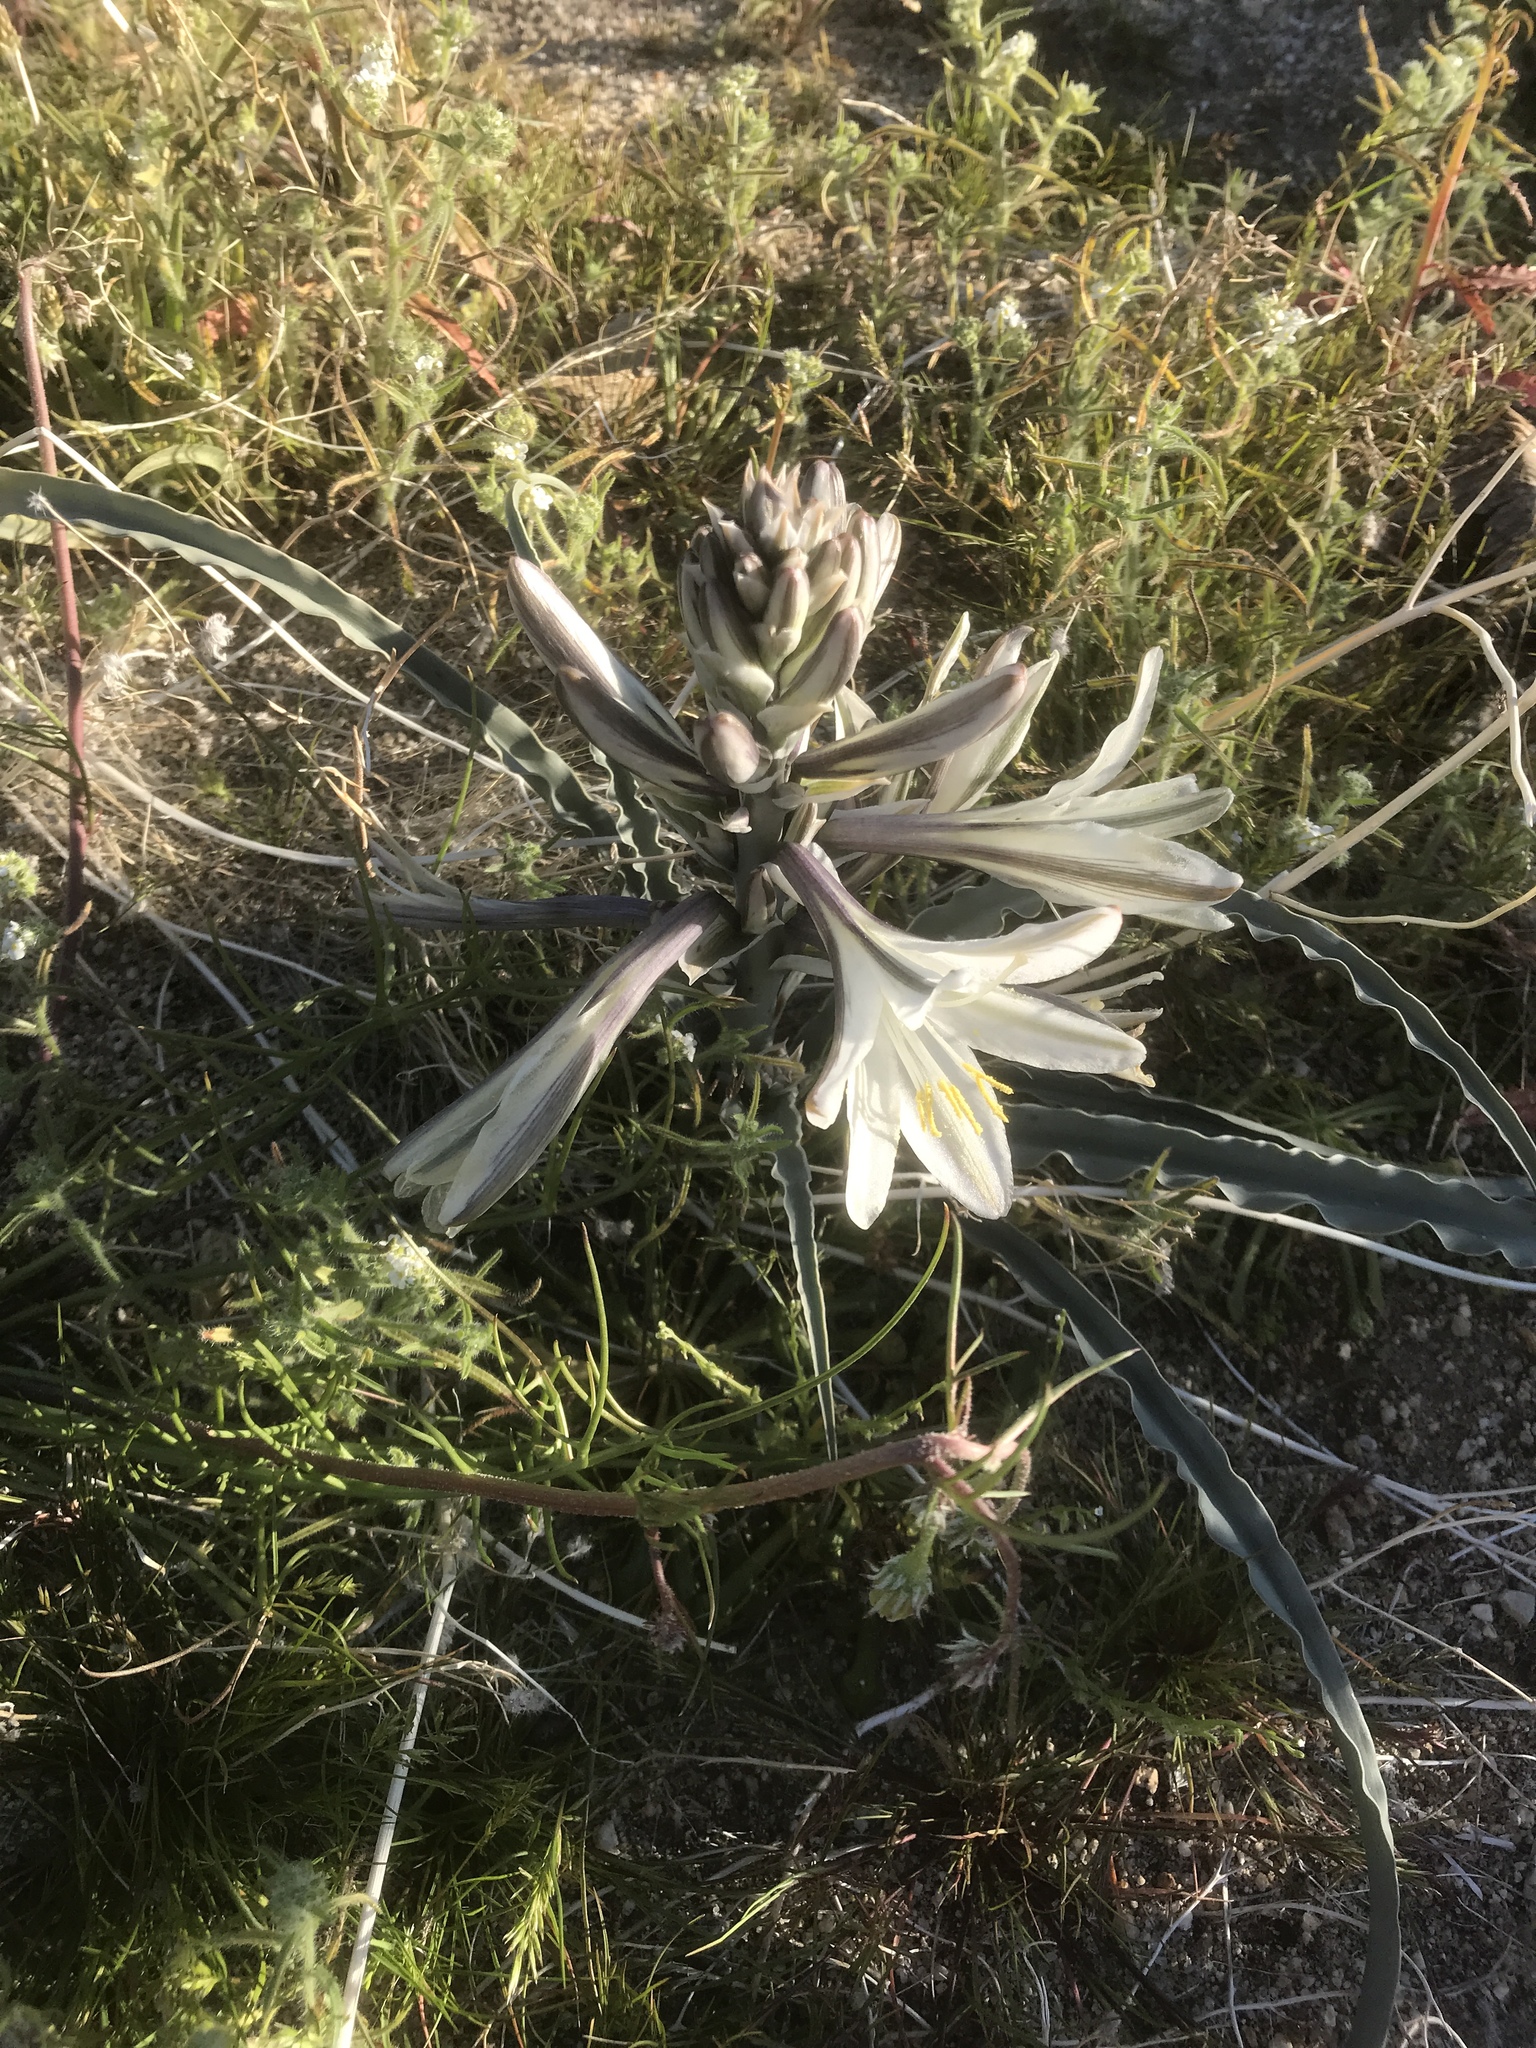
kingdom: Plantae
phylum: Tracheophyta
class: Liliopsida
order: Asparagales
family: Asparagaceae
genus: Hesperocallis
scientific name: Hesperocallis undulata
